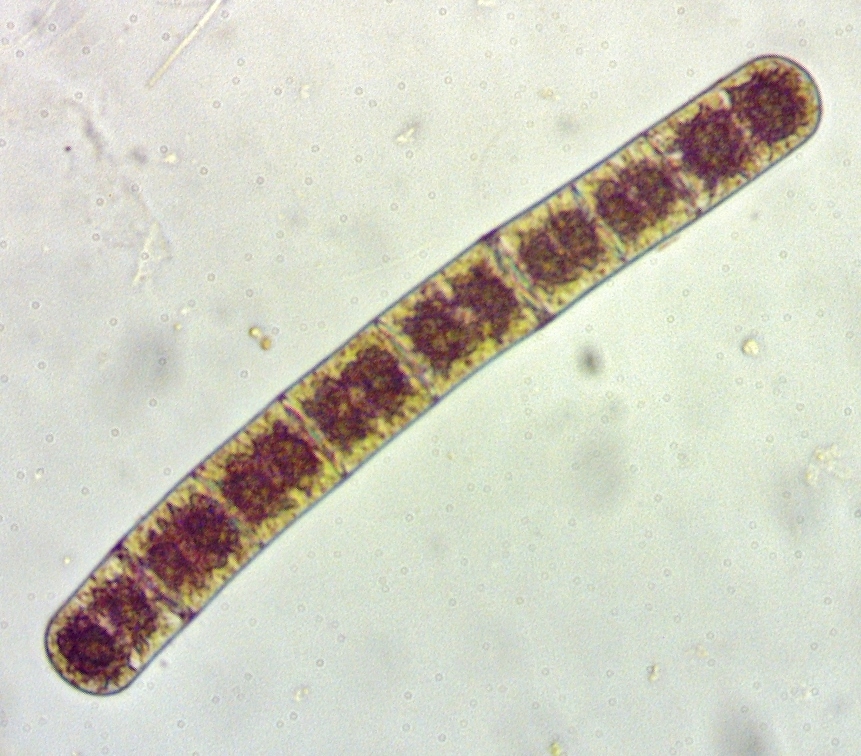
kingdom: Plantae
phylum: Charophyta
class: Zygnematophyceae
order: Zygnematales
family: Zygnemataceae
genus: Zygnema
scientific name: Zygnema
